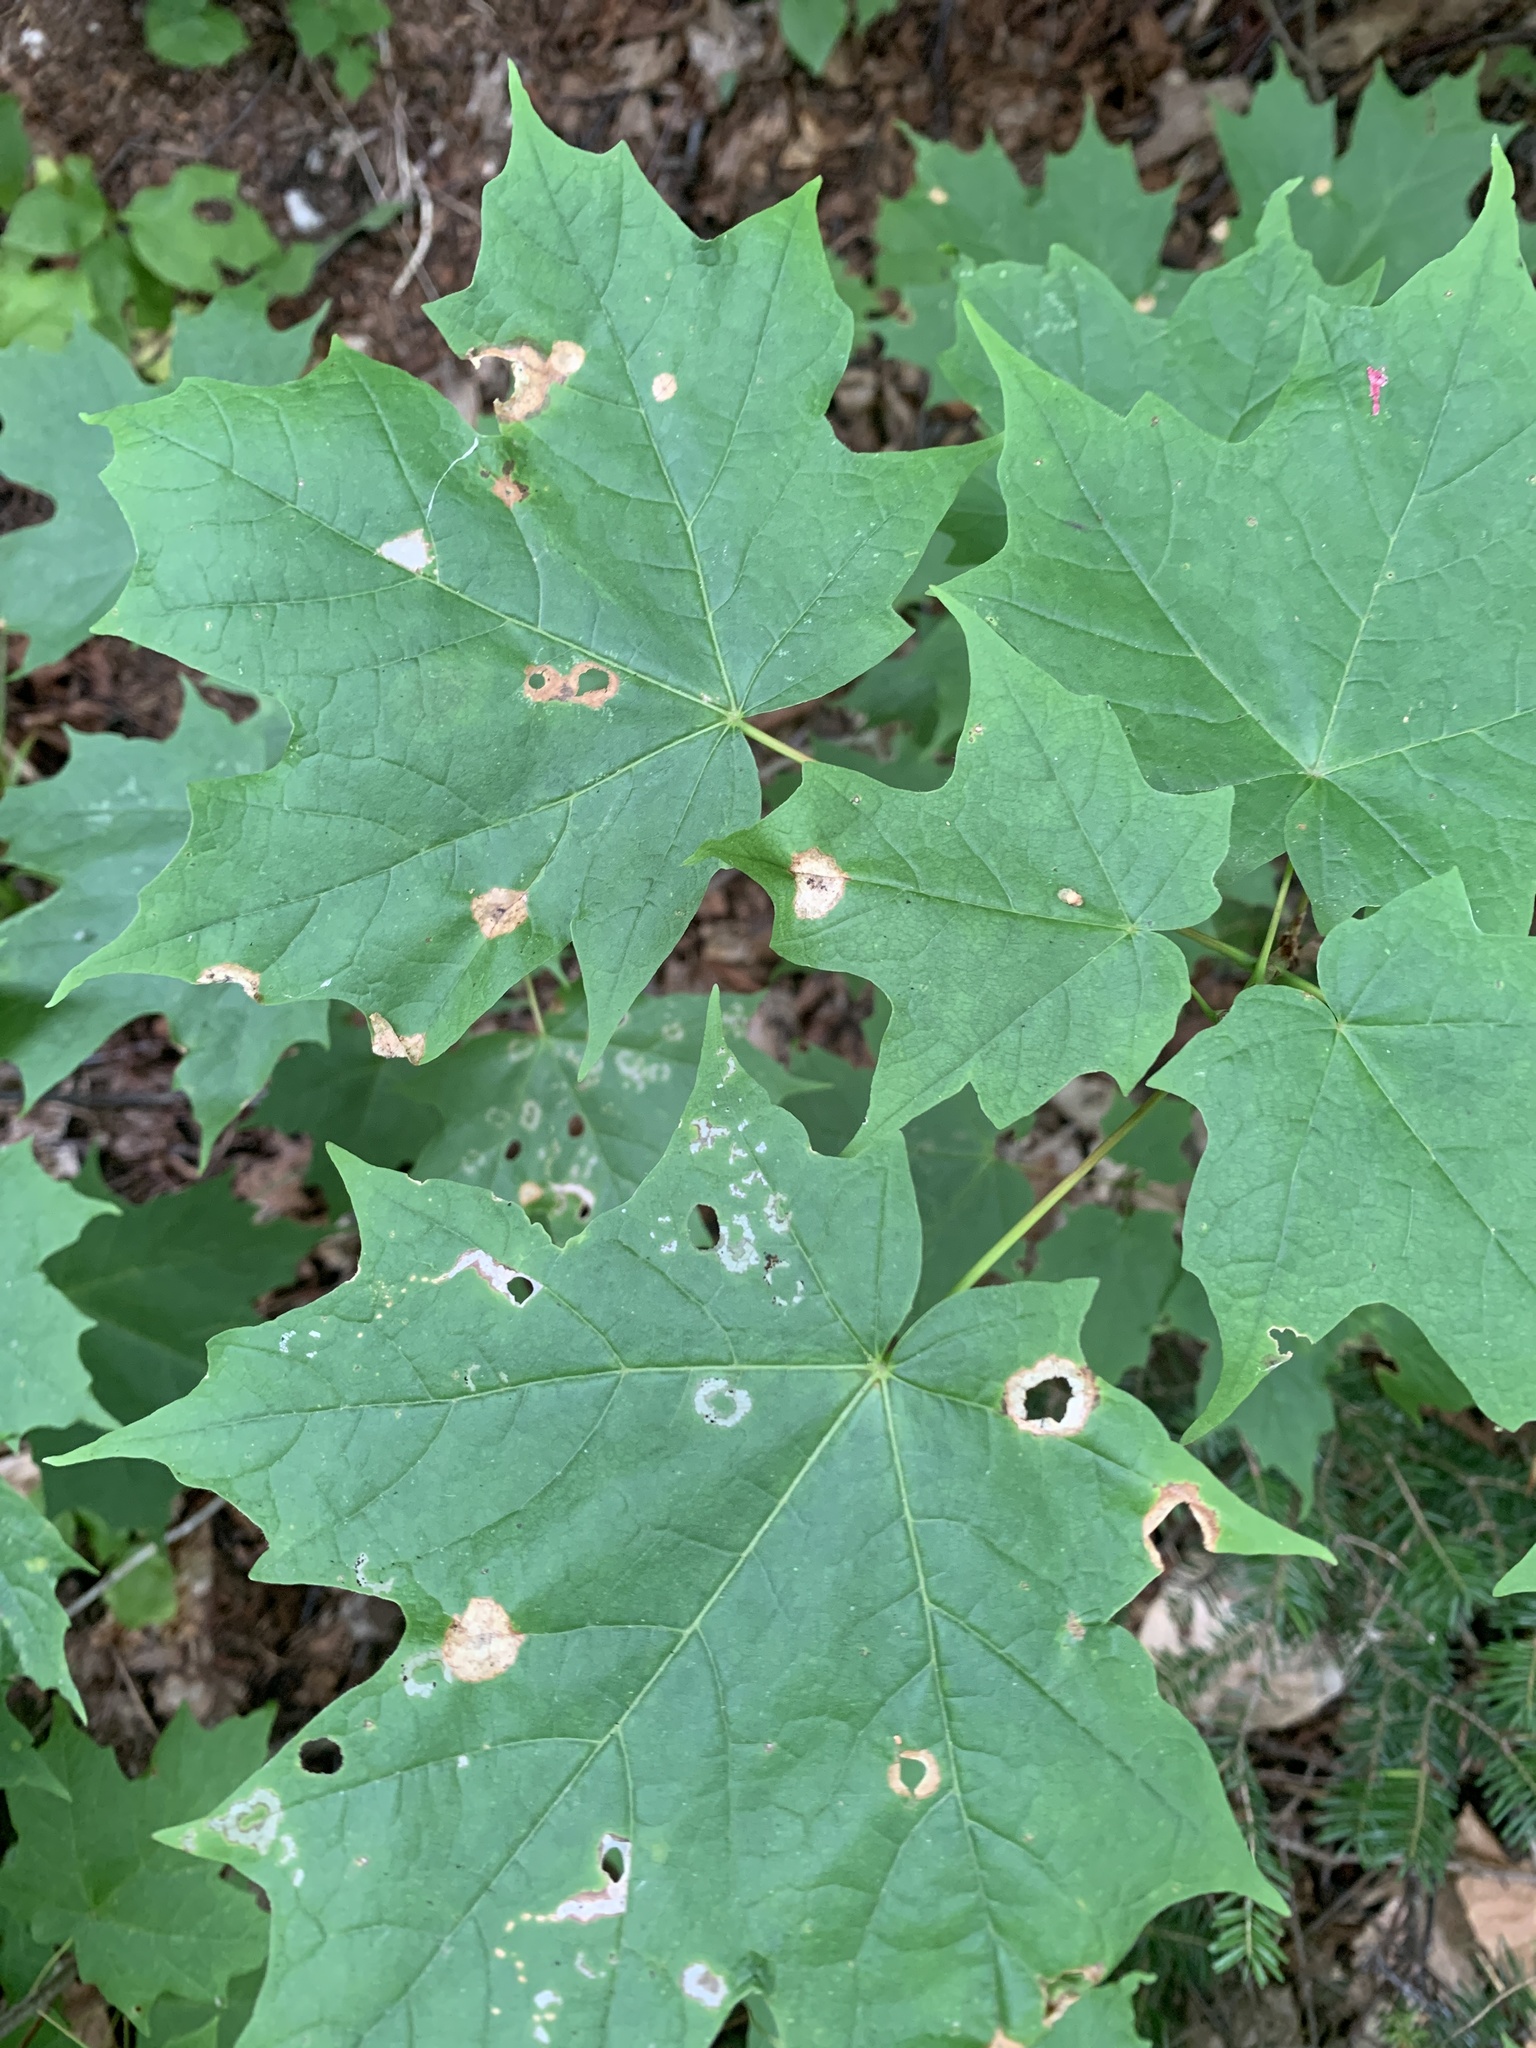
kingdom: Animalia
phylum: Arthropoda
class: Insecta
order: Lepidoptera
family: Incurvariidae
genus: Paraclemensia
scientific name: Paraclemensia acerifoliella
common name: Maple leafcutter
